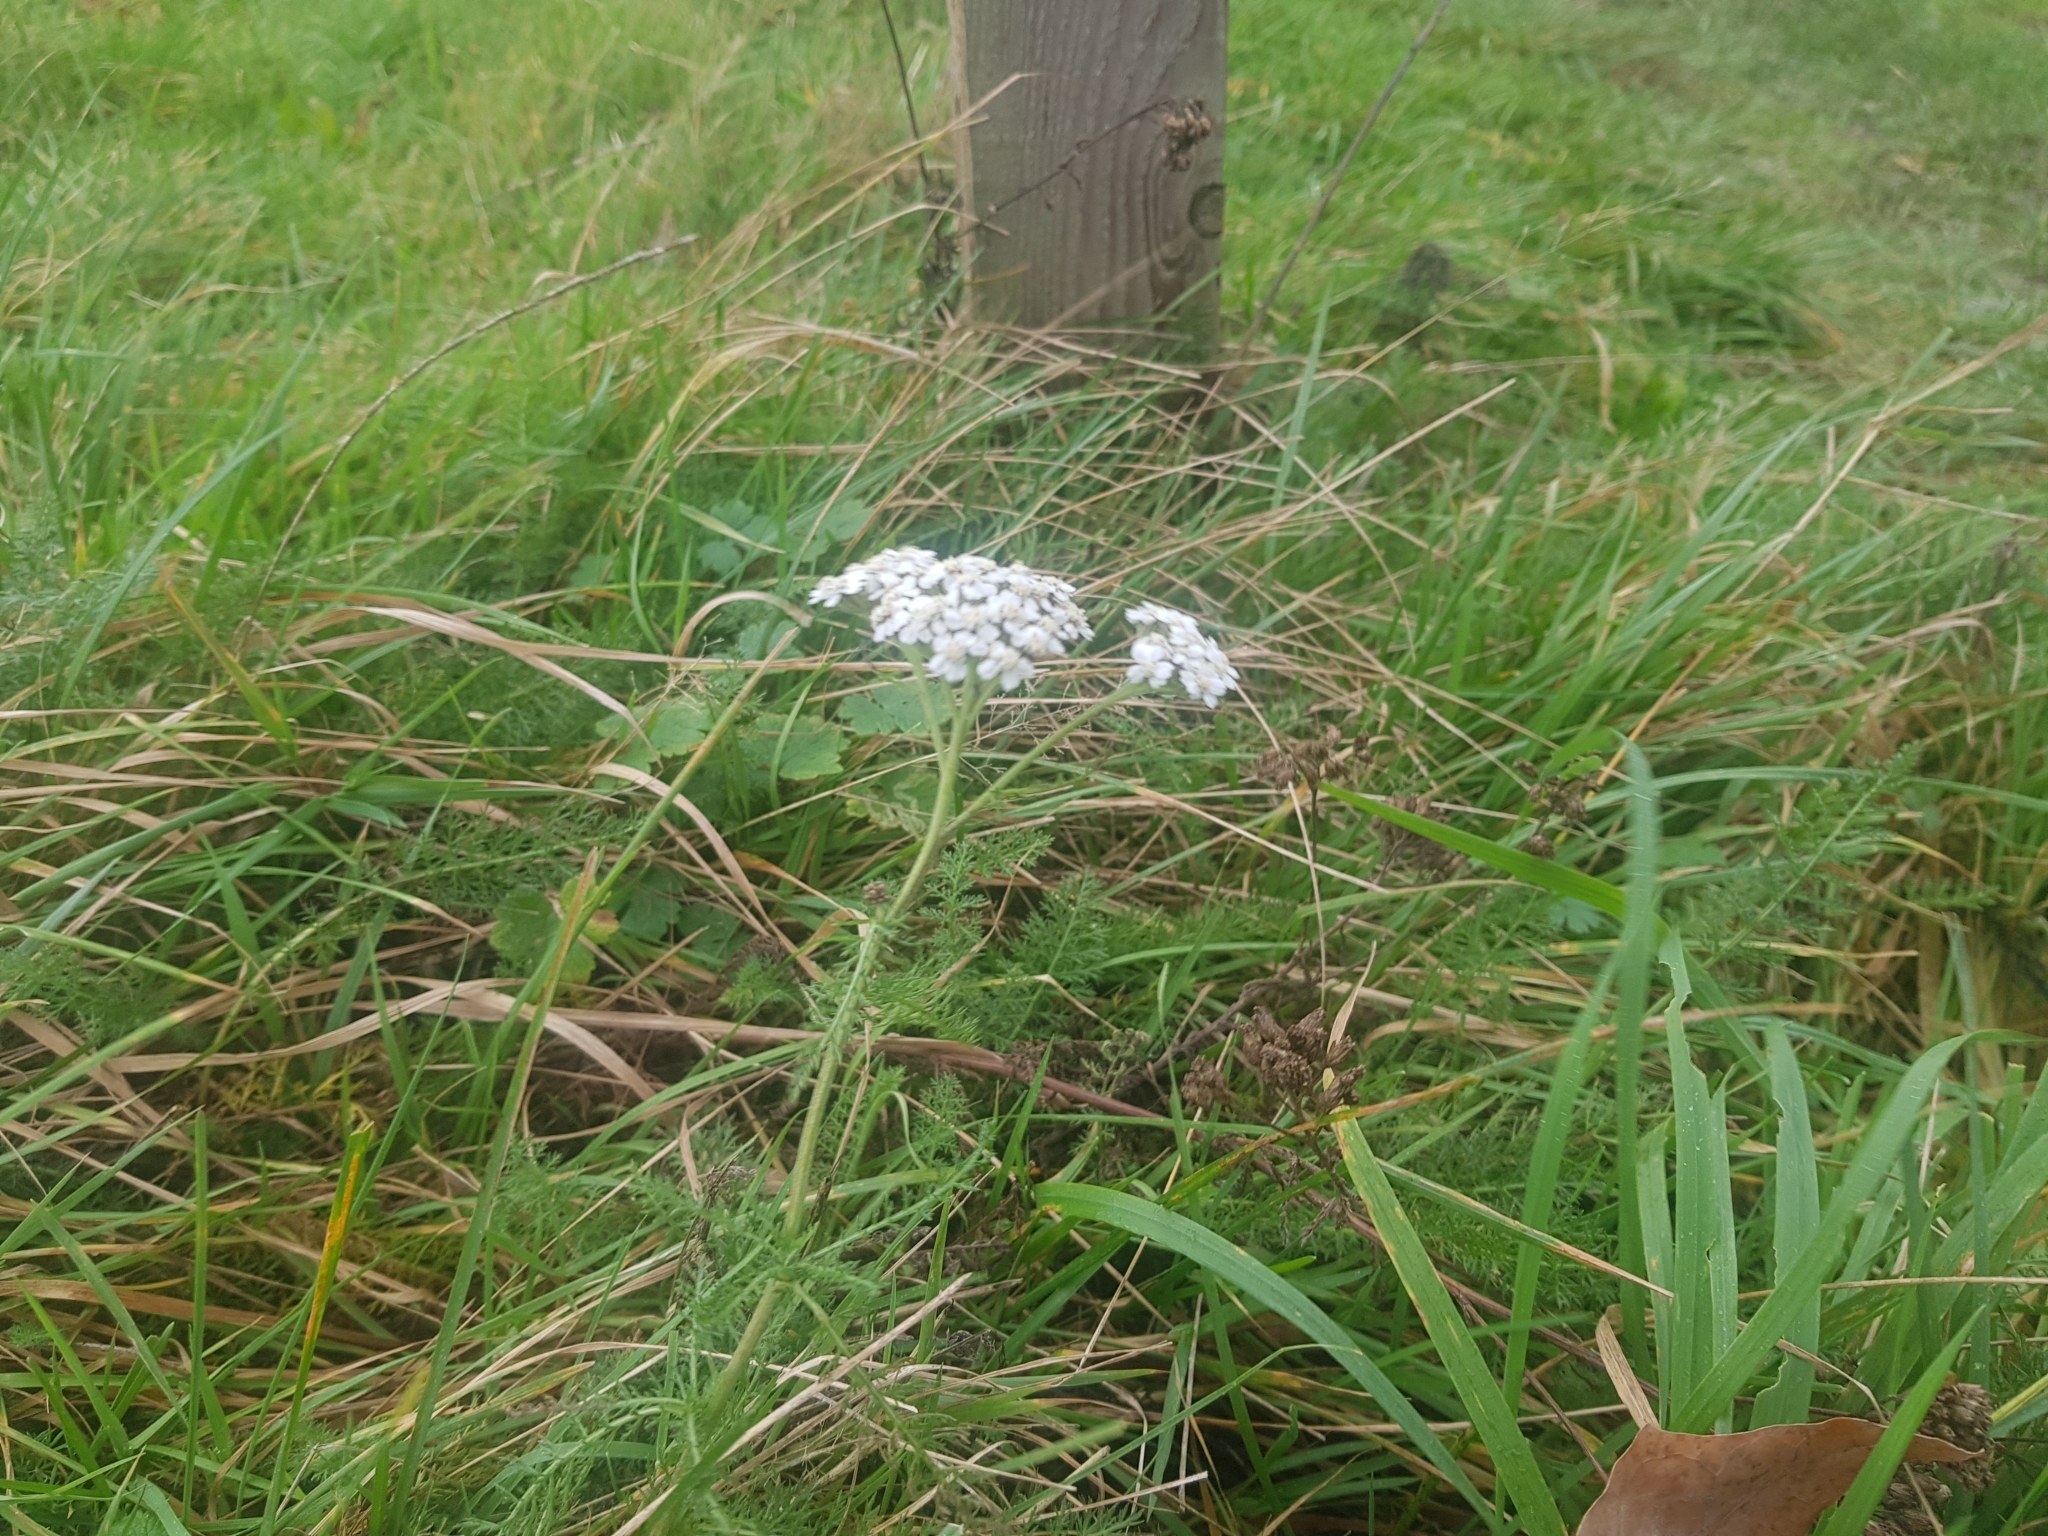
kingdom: Plantae
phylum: Tracheophyta
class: Magnoliopsida
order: Asterales
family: Asteraceae
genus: Achillea
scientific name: Achillea millefolium
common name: Yarrow
